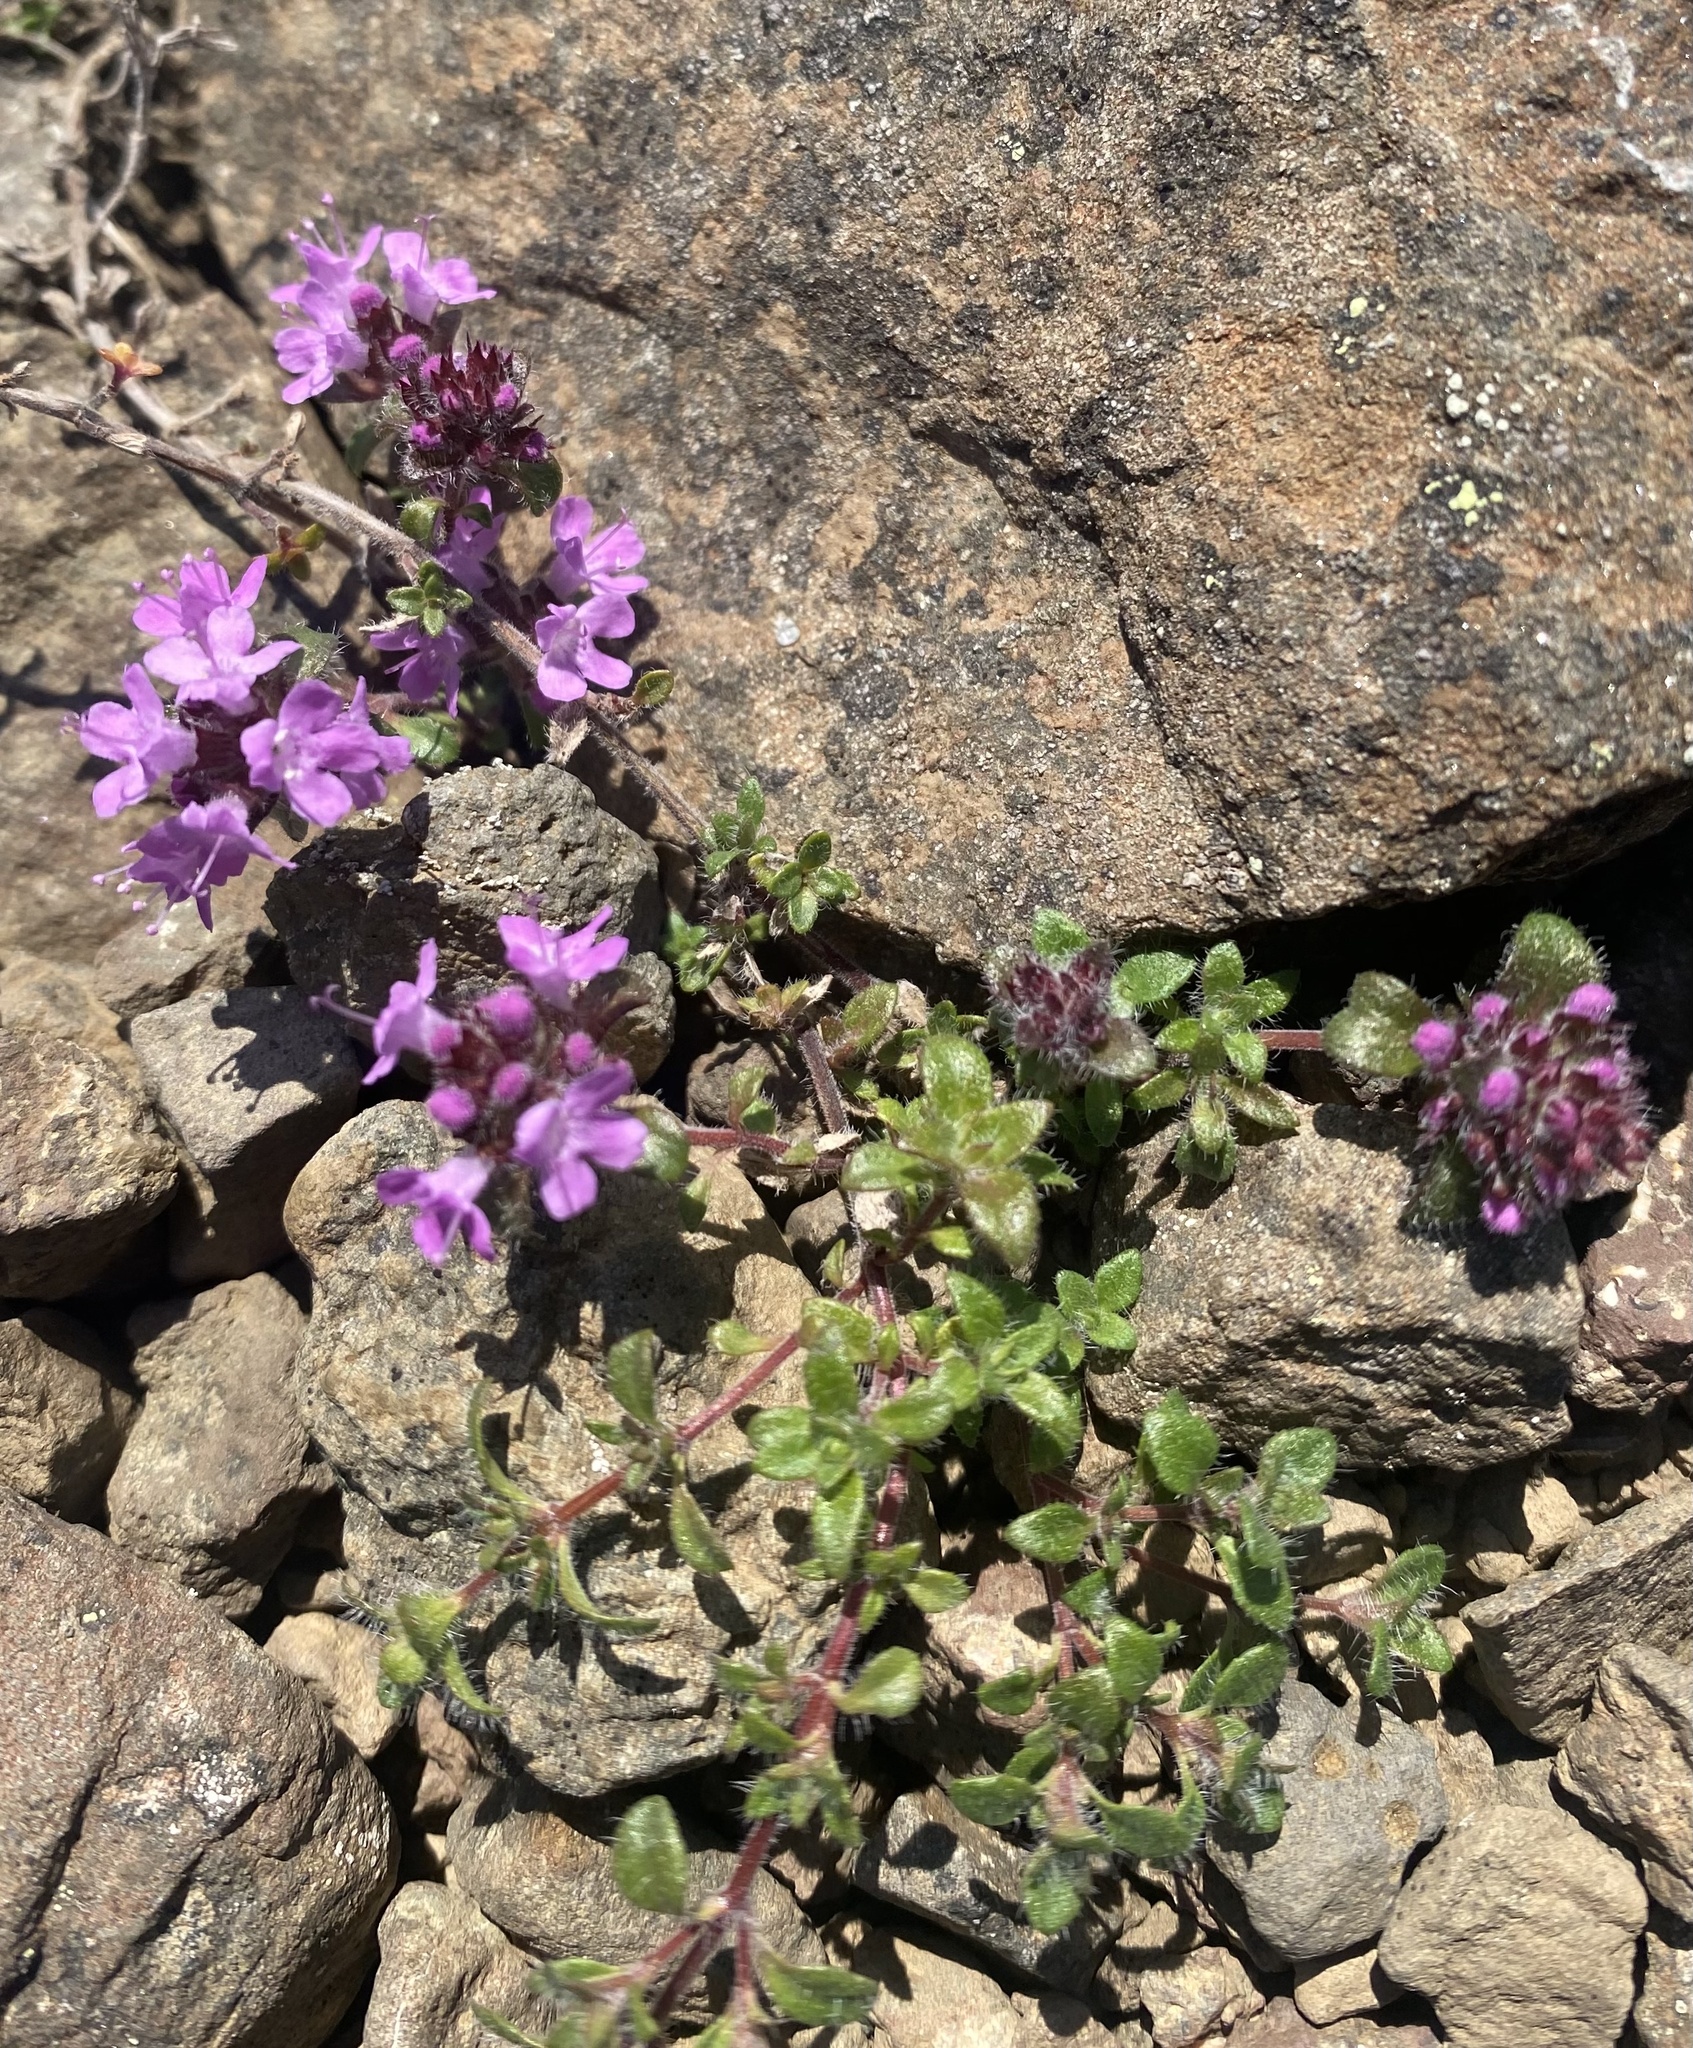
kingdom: Plantae
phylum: Tracheophyta
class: Magnoliopsida
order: Lamiales
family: Lamiaceae
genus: Thymus
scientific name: Thymus reverdattoanus
